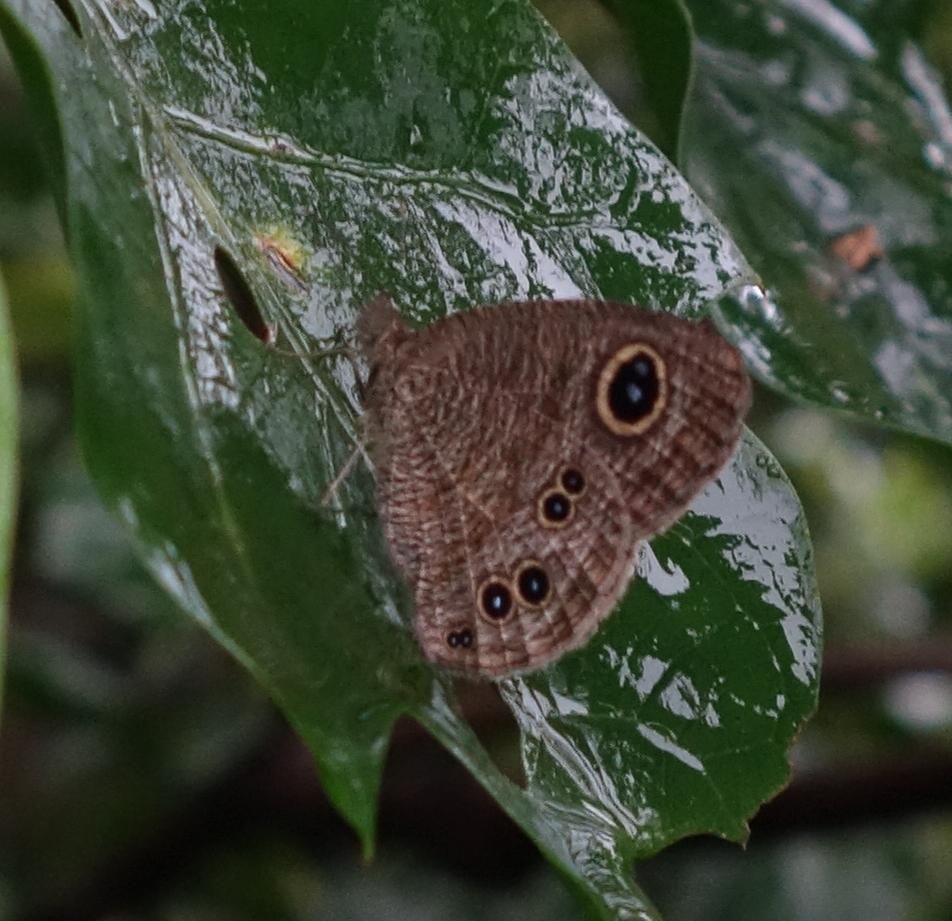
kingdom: Animalia
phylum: Arthropoda
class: Insecta
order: Lepidoptera
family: Nymphalidae
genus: Ypthima
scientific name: Ypthima baldus
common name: Common five-ring
